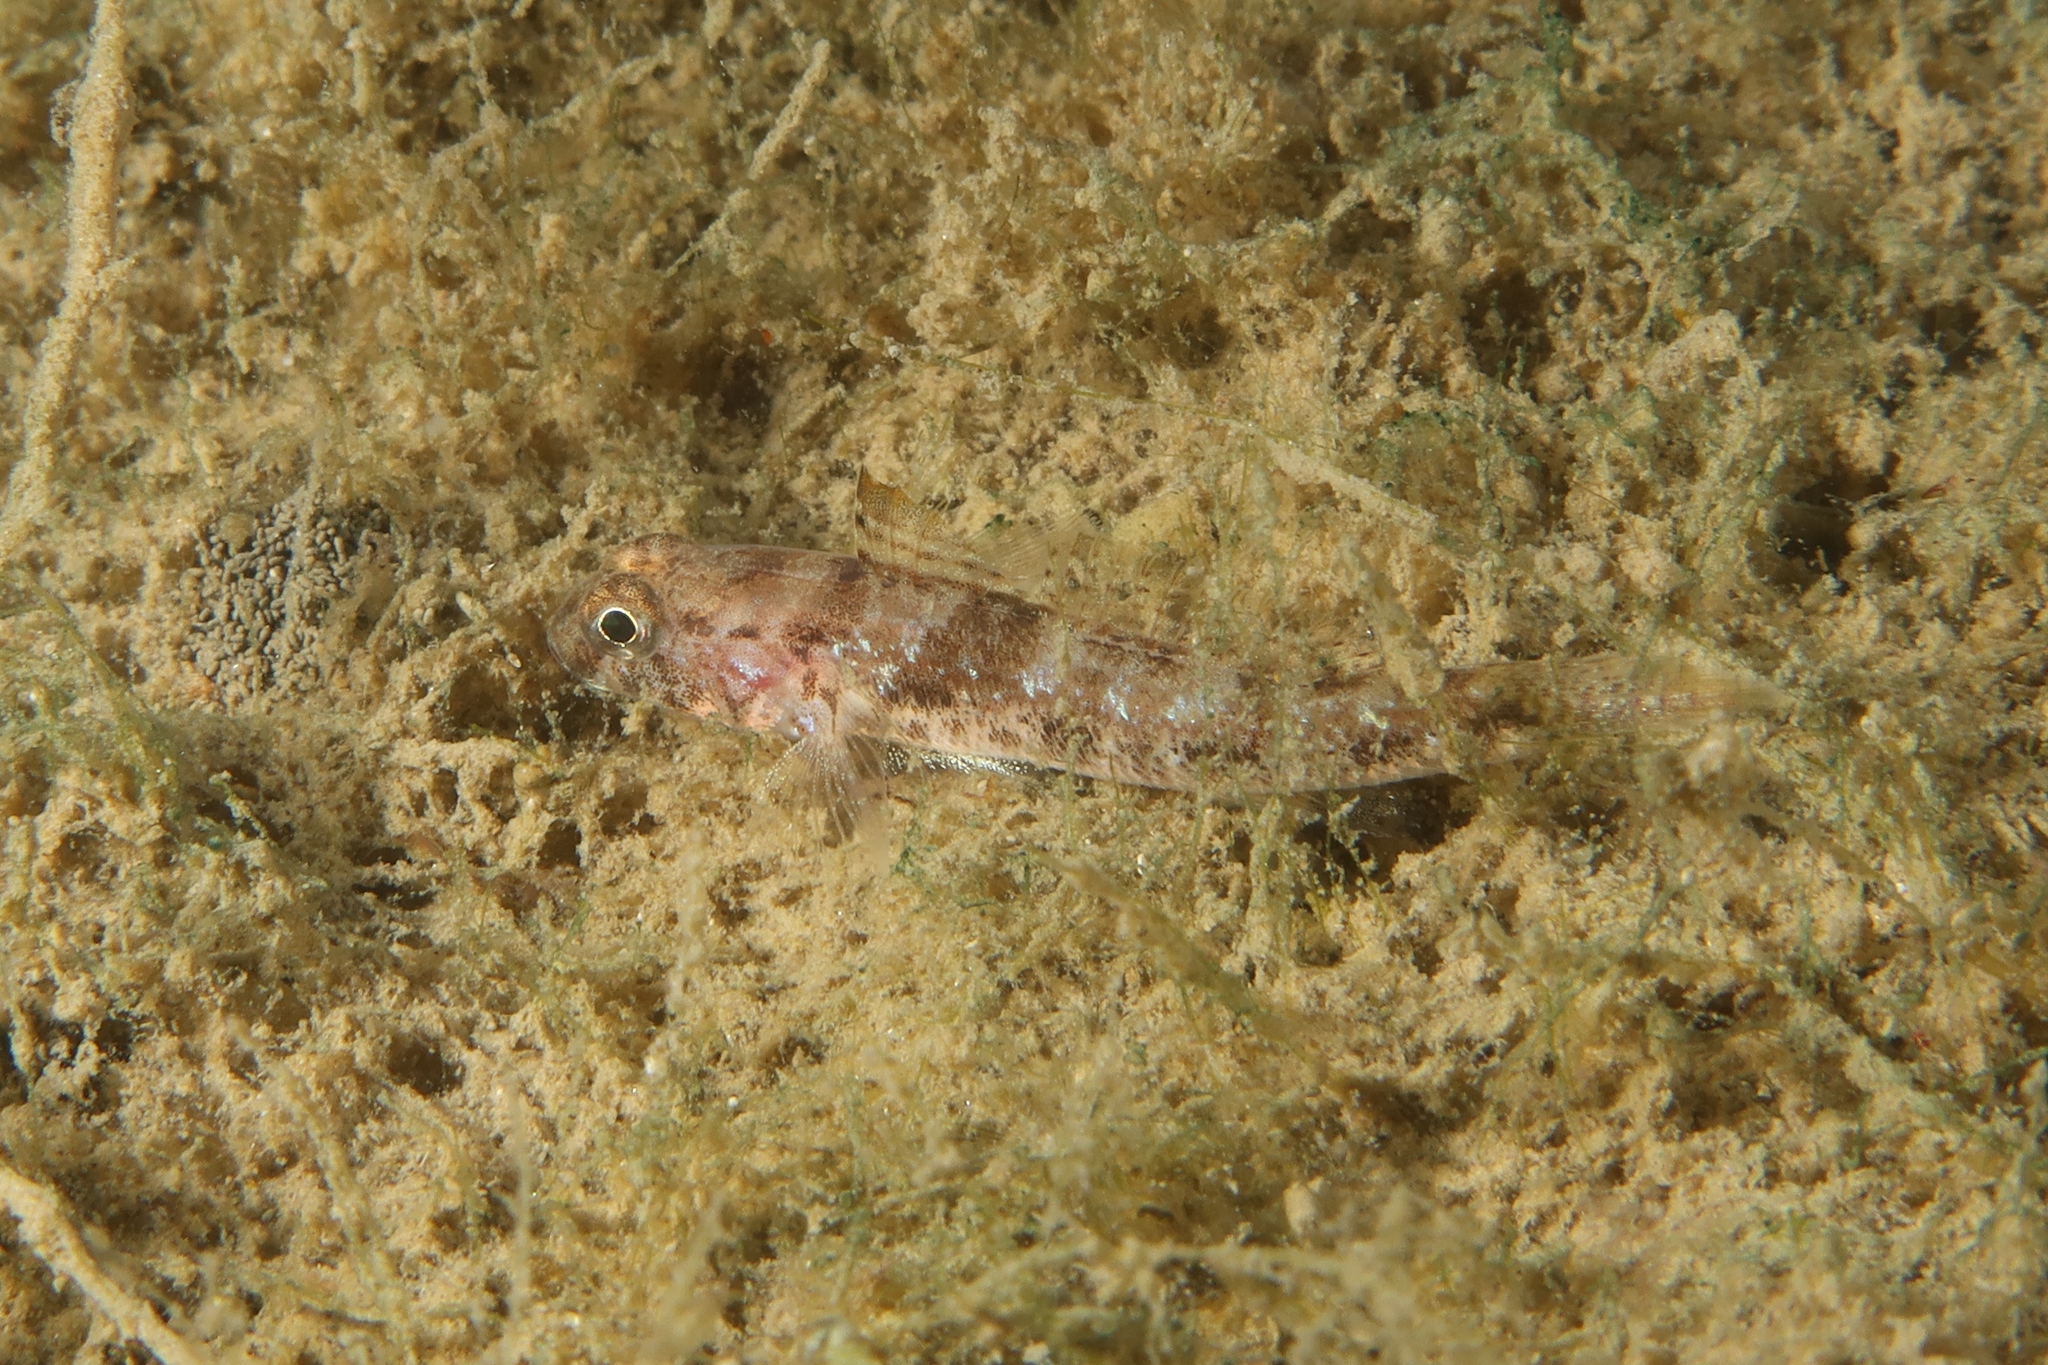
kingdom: Animalia
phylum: Chordata
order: Perciformes
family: Gobiidae
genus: Gobius
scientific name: Gobius niger
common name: Black goby
